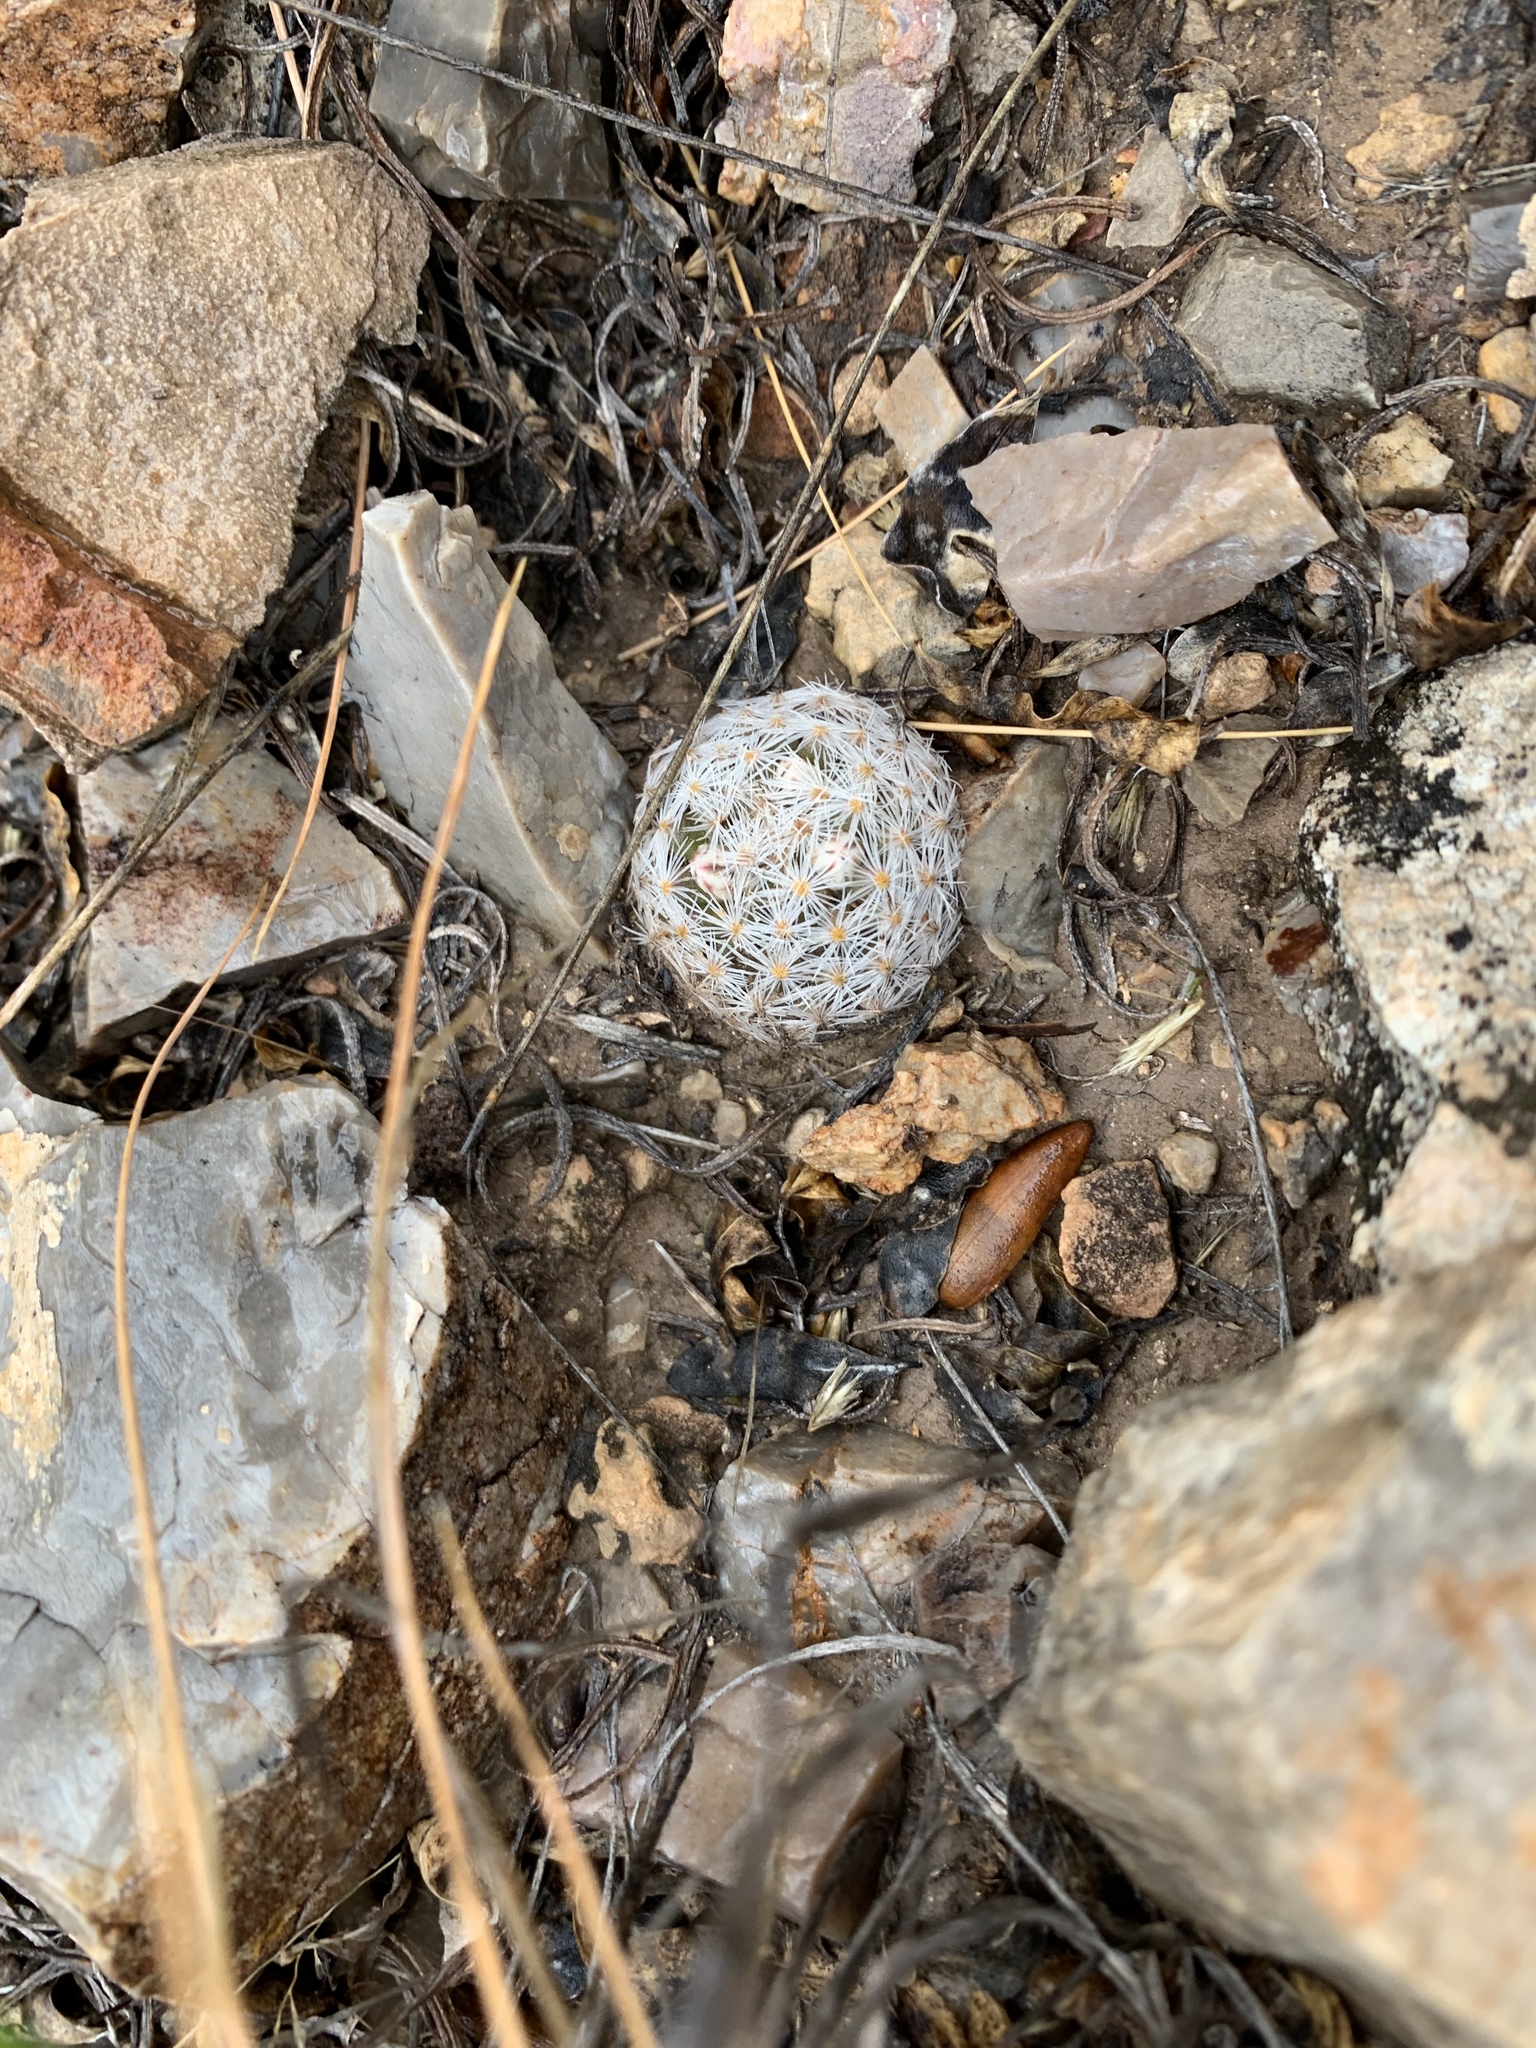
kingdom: Plantae
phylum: Tracheophyta
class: Magnoliopsida
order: Caryophyllales
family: Cactaceae
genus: Mammillaria
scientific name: Mammillaria lasiacantha
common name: Lace-spine nipple cactus
